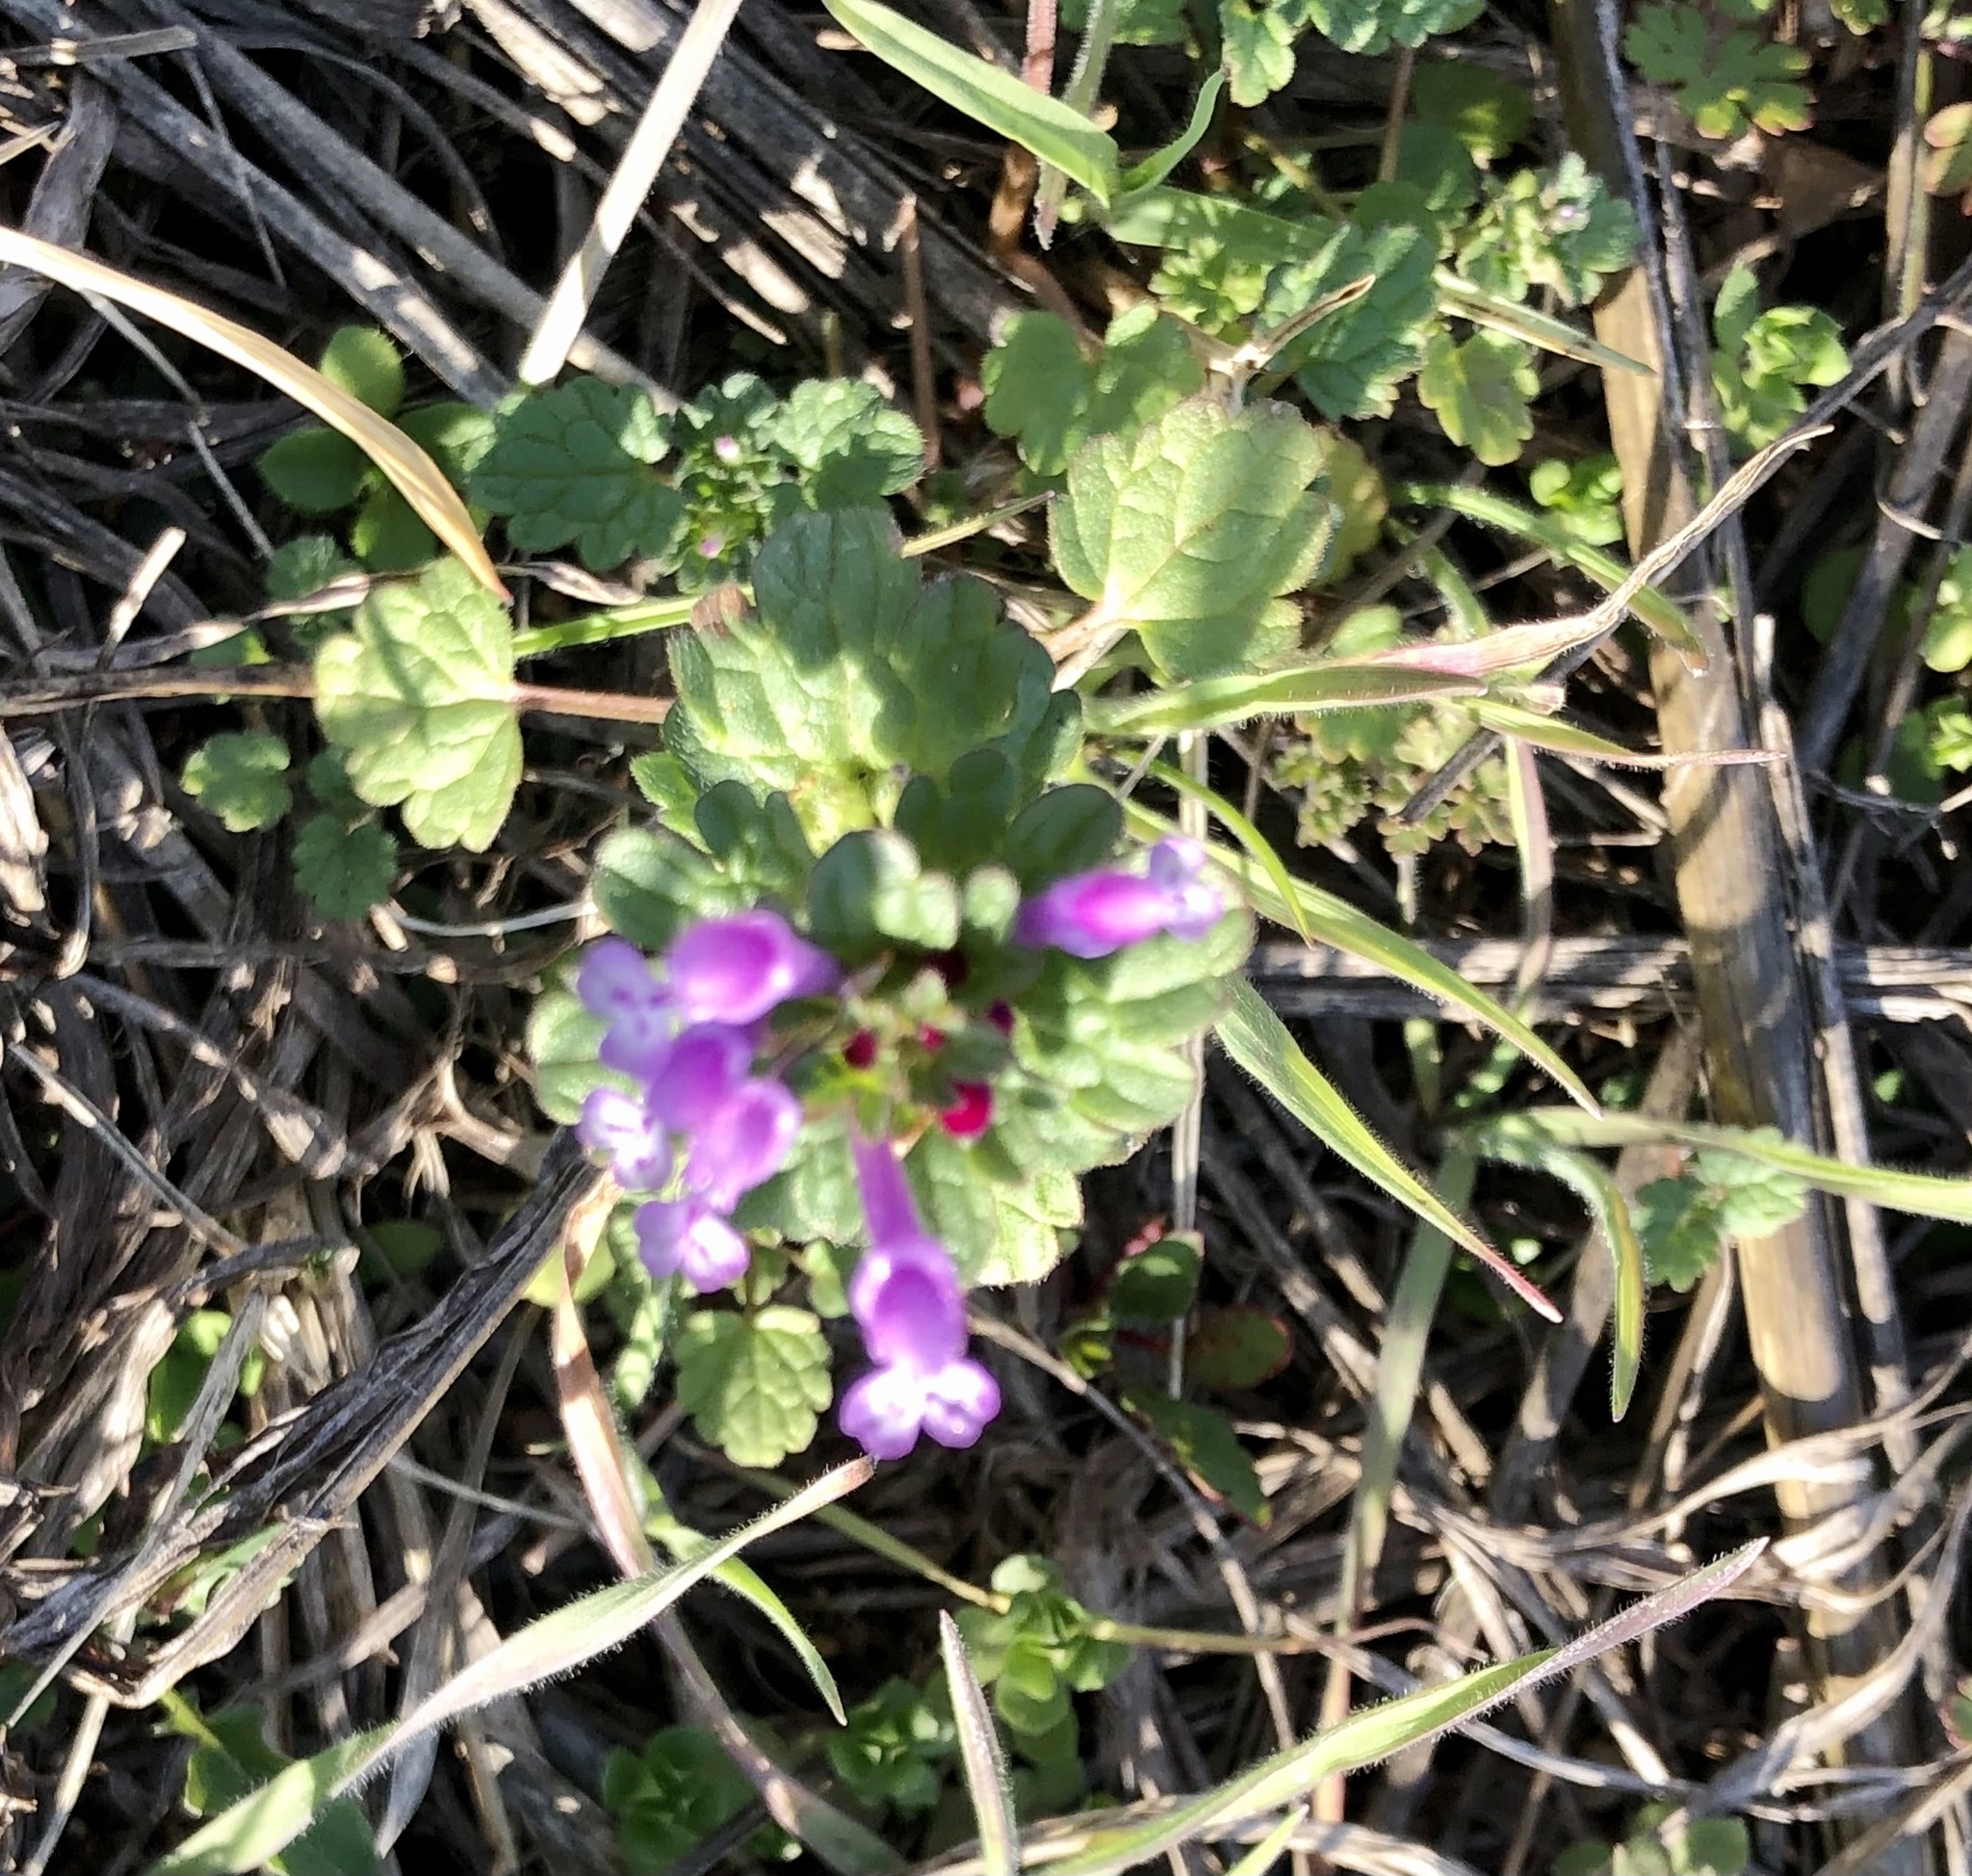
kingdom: Plantae
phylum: Tracheophyta
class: Magnoliopsida
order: Lamiales
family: Lamiaceae
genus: Lamium
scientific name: Lamium amplexicaule
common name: Henbit dead-nettle
